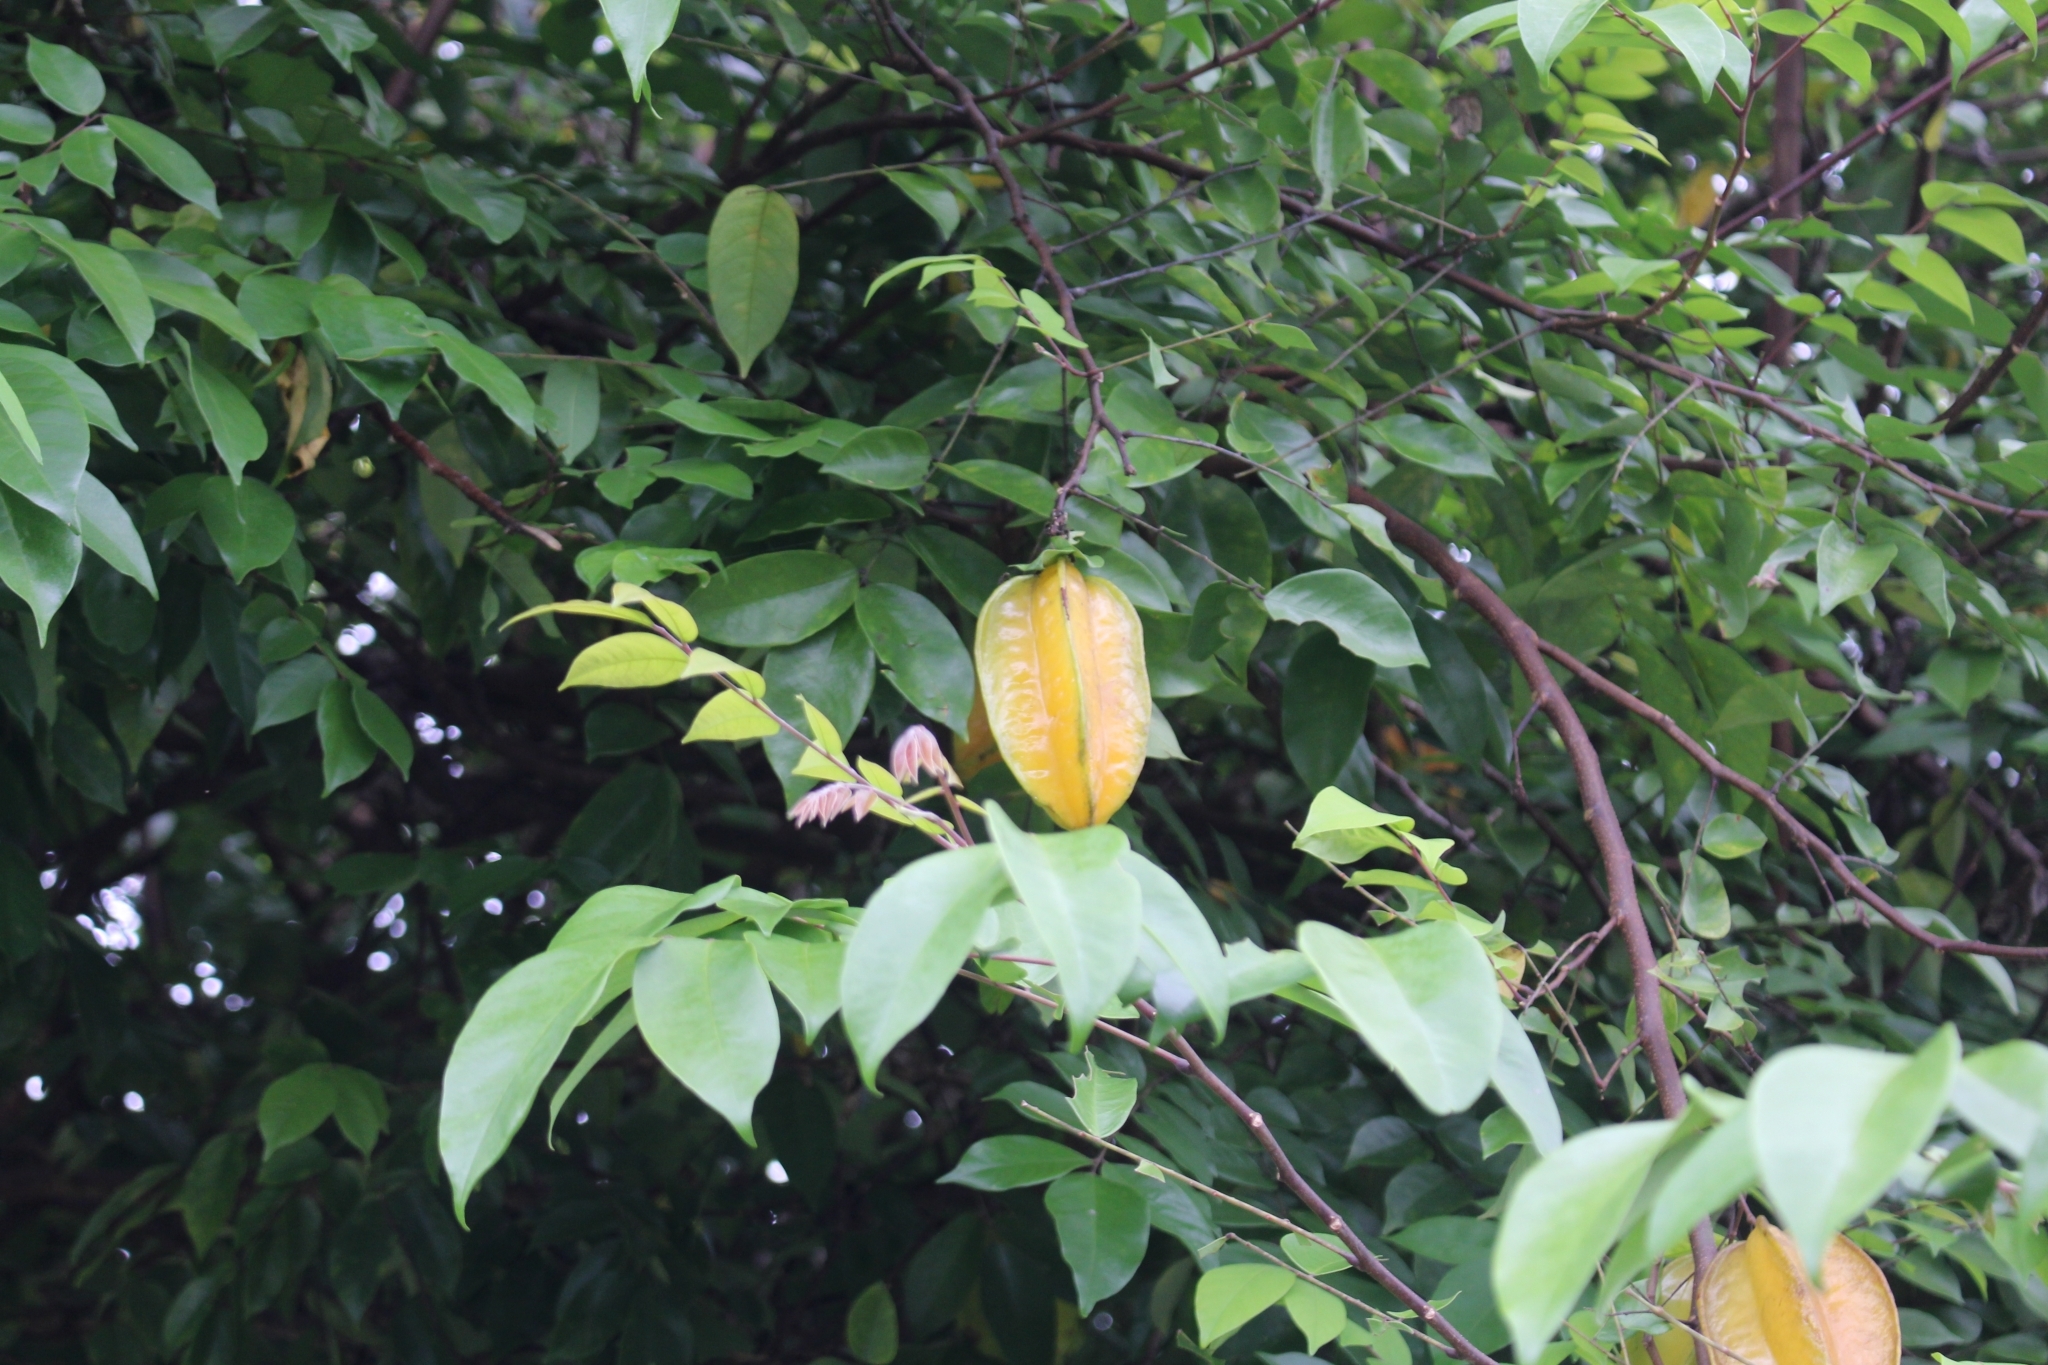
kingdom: Plantae
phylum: Tracheophyta
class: Magnoliopsida
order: Oxalidales
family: Oxalidaceae
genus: Averrhoa
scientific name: Averrhoa carambola
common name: Blimbing
